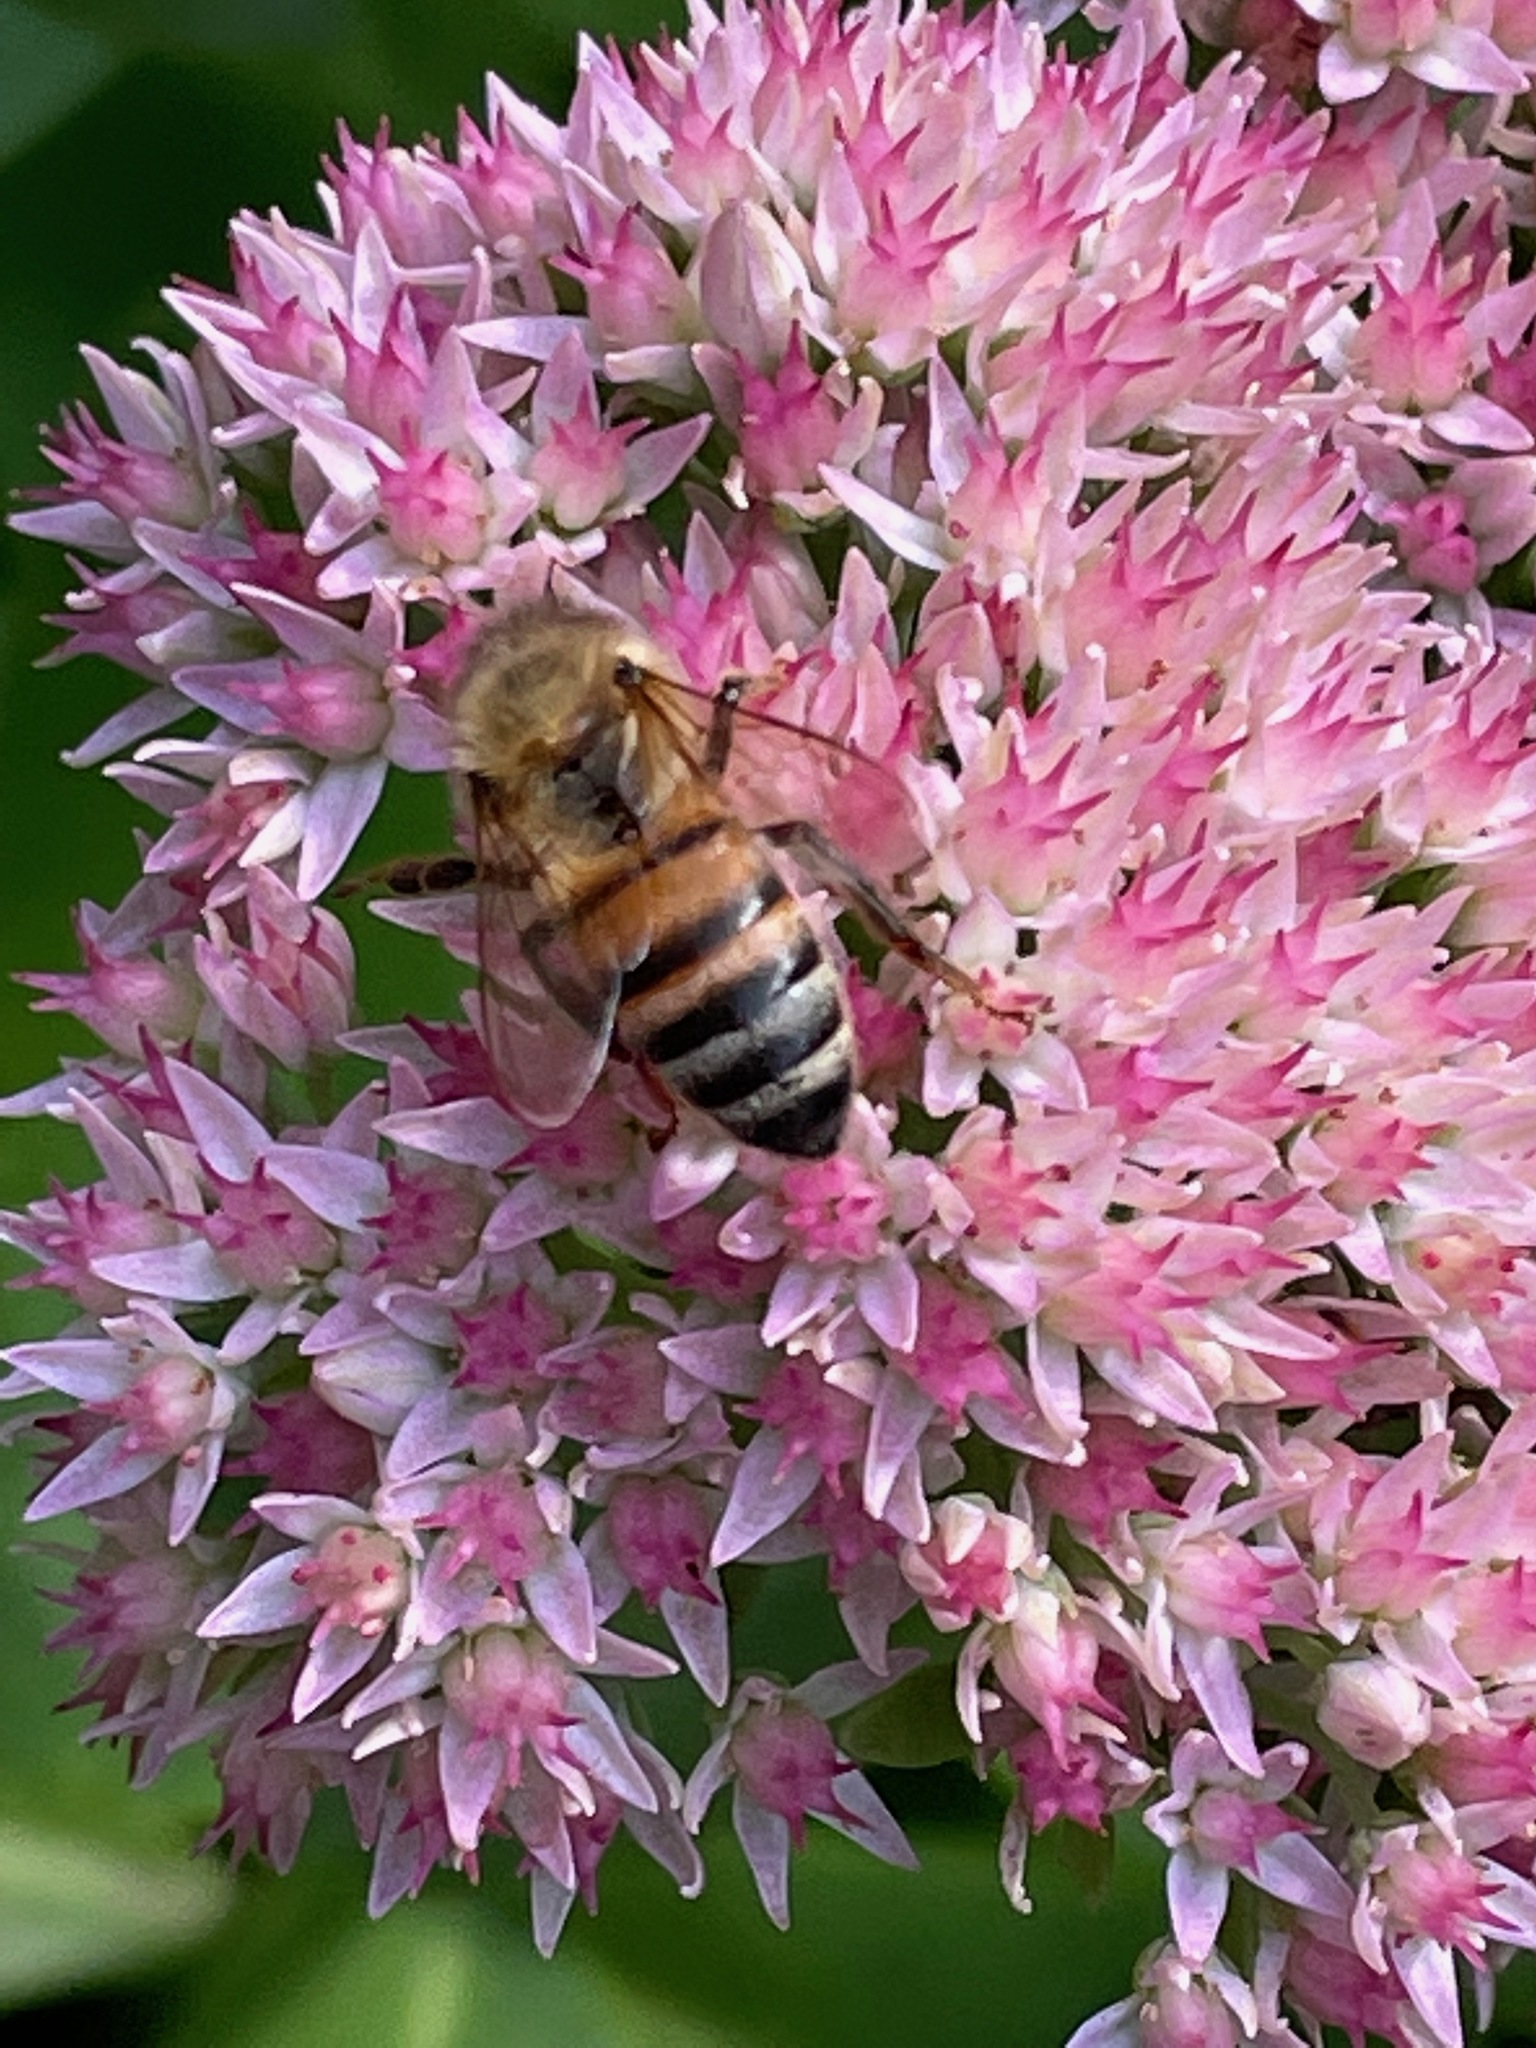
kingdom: Animalia
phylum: Arthropoda
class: Insecta
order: Hymenoptera
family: Apidae
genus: Apis
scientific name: Apis mellifera
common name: Honey bee
